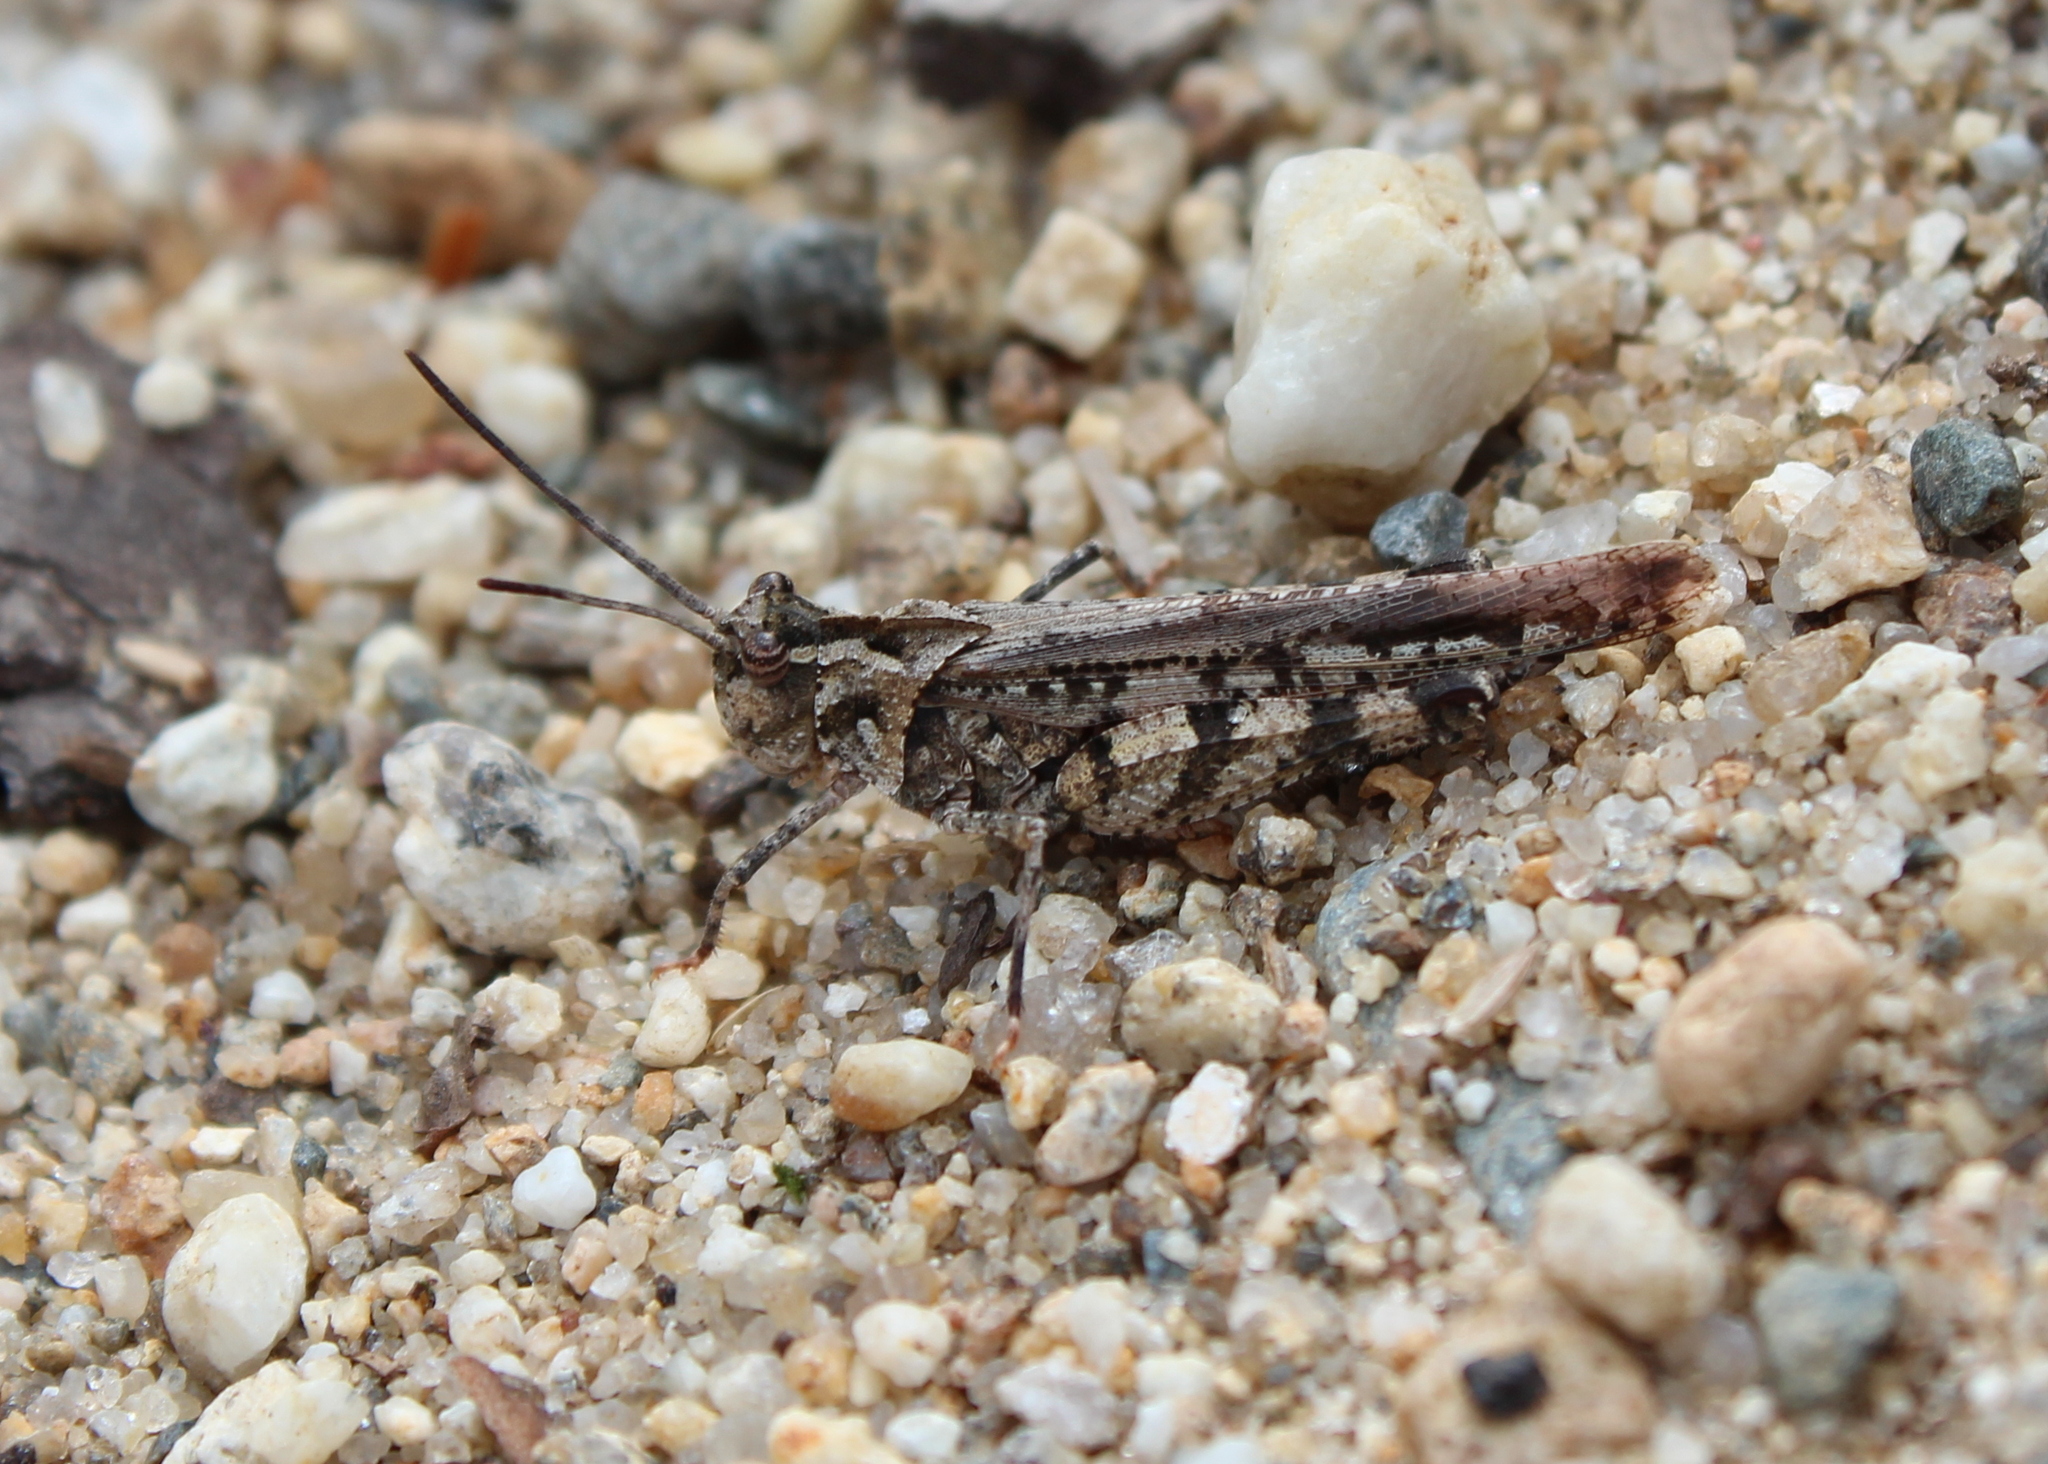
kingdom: Animalia
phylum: Arthropoda
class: Insecta
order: Orthoptera
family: Acrididae
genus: Psinidia
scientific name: Psinidia fenestralis
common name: Long-horned locust
